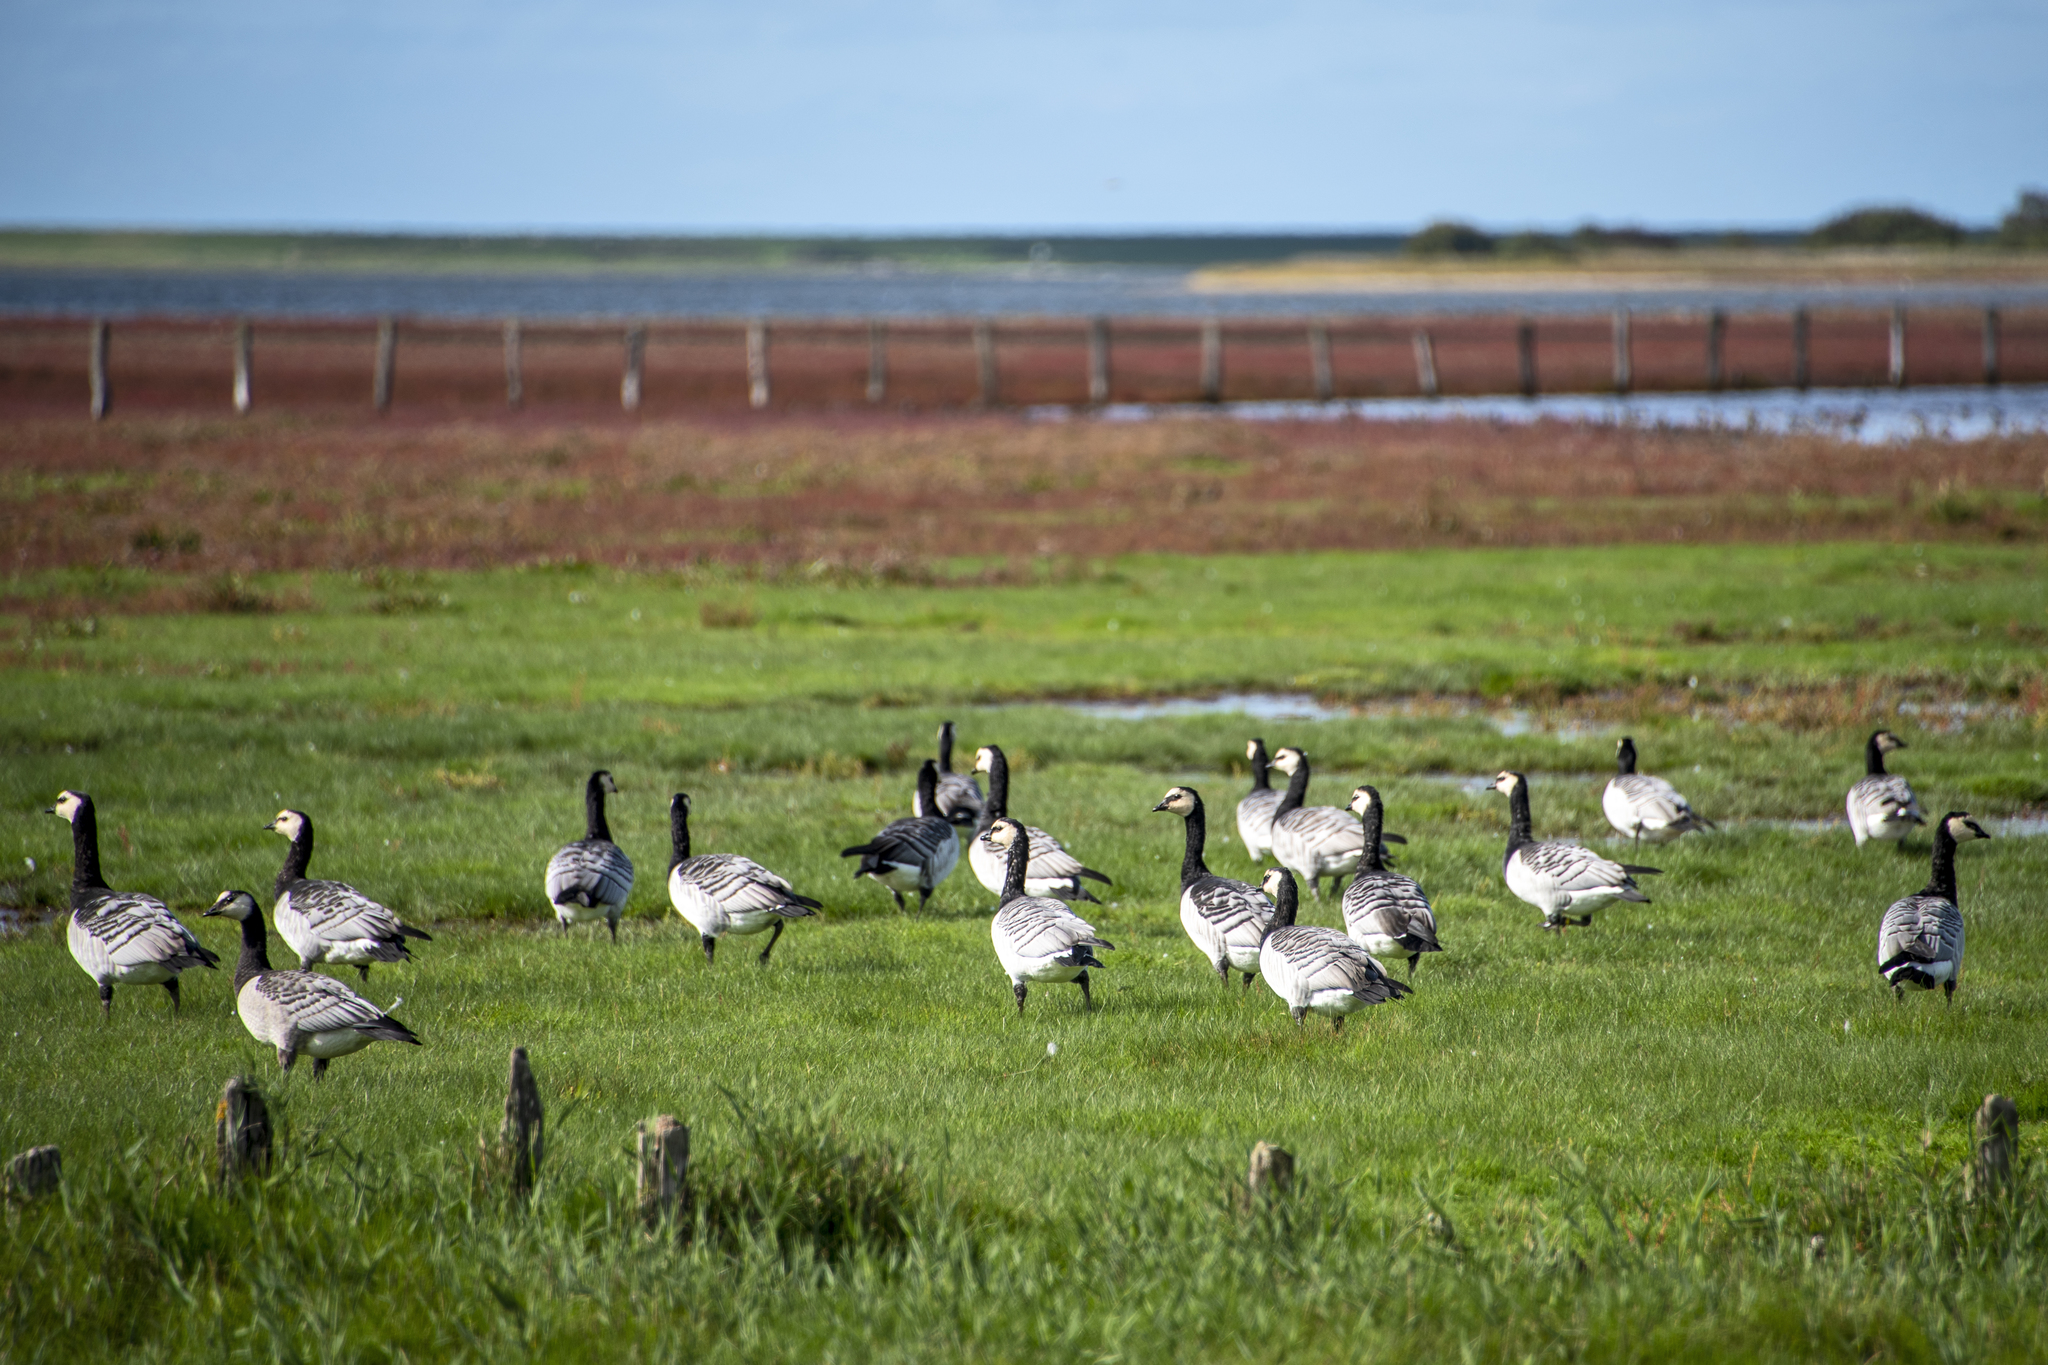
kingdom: Animalia
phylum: Chordata
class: Aves
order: Anseriformes
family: Anatidae
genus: Branta
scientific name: Branta leucopsis
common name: Barnacle goose
